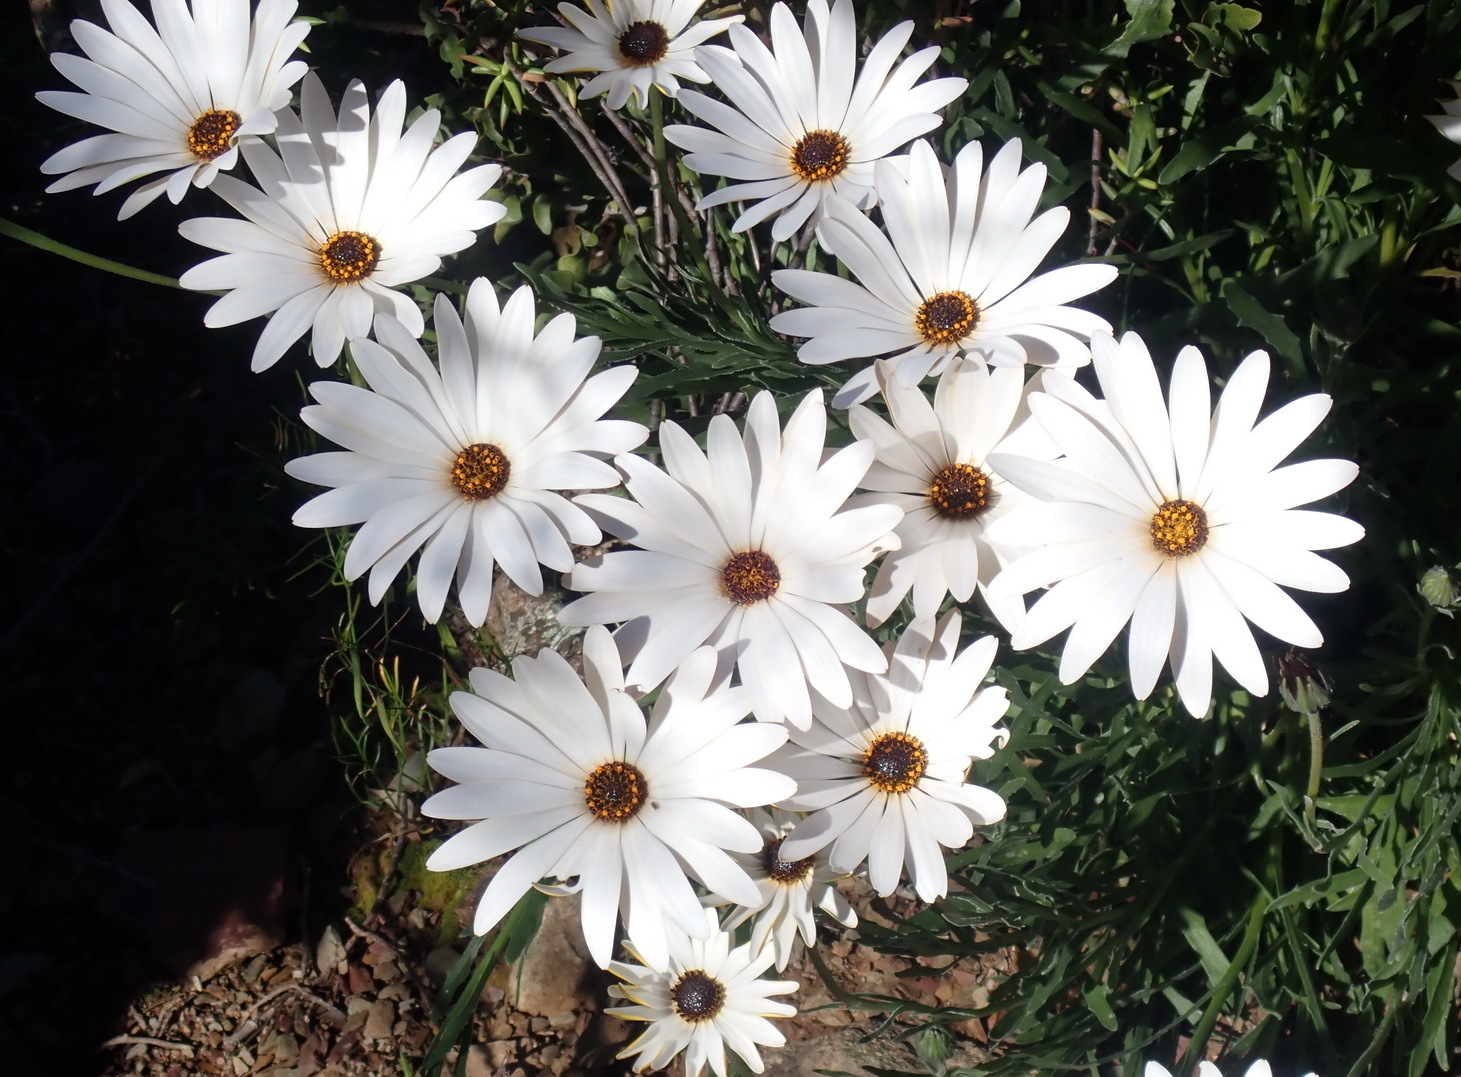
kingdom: Plantae
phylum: Tracheophyta
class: Magnoliopsida
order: Asterales
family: Asteraceae
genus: Dimorphotheca
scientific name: Dimorphotheca nudicaulis
